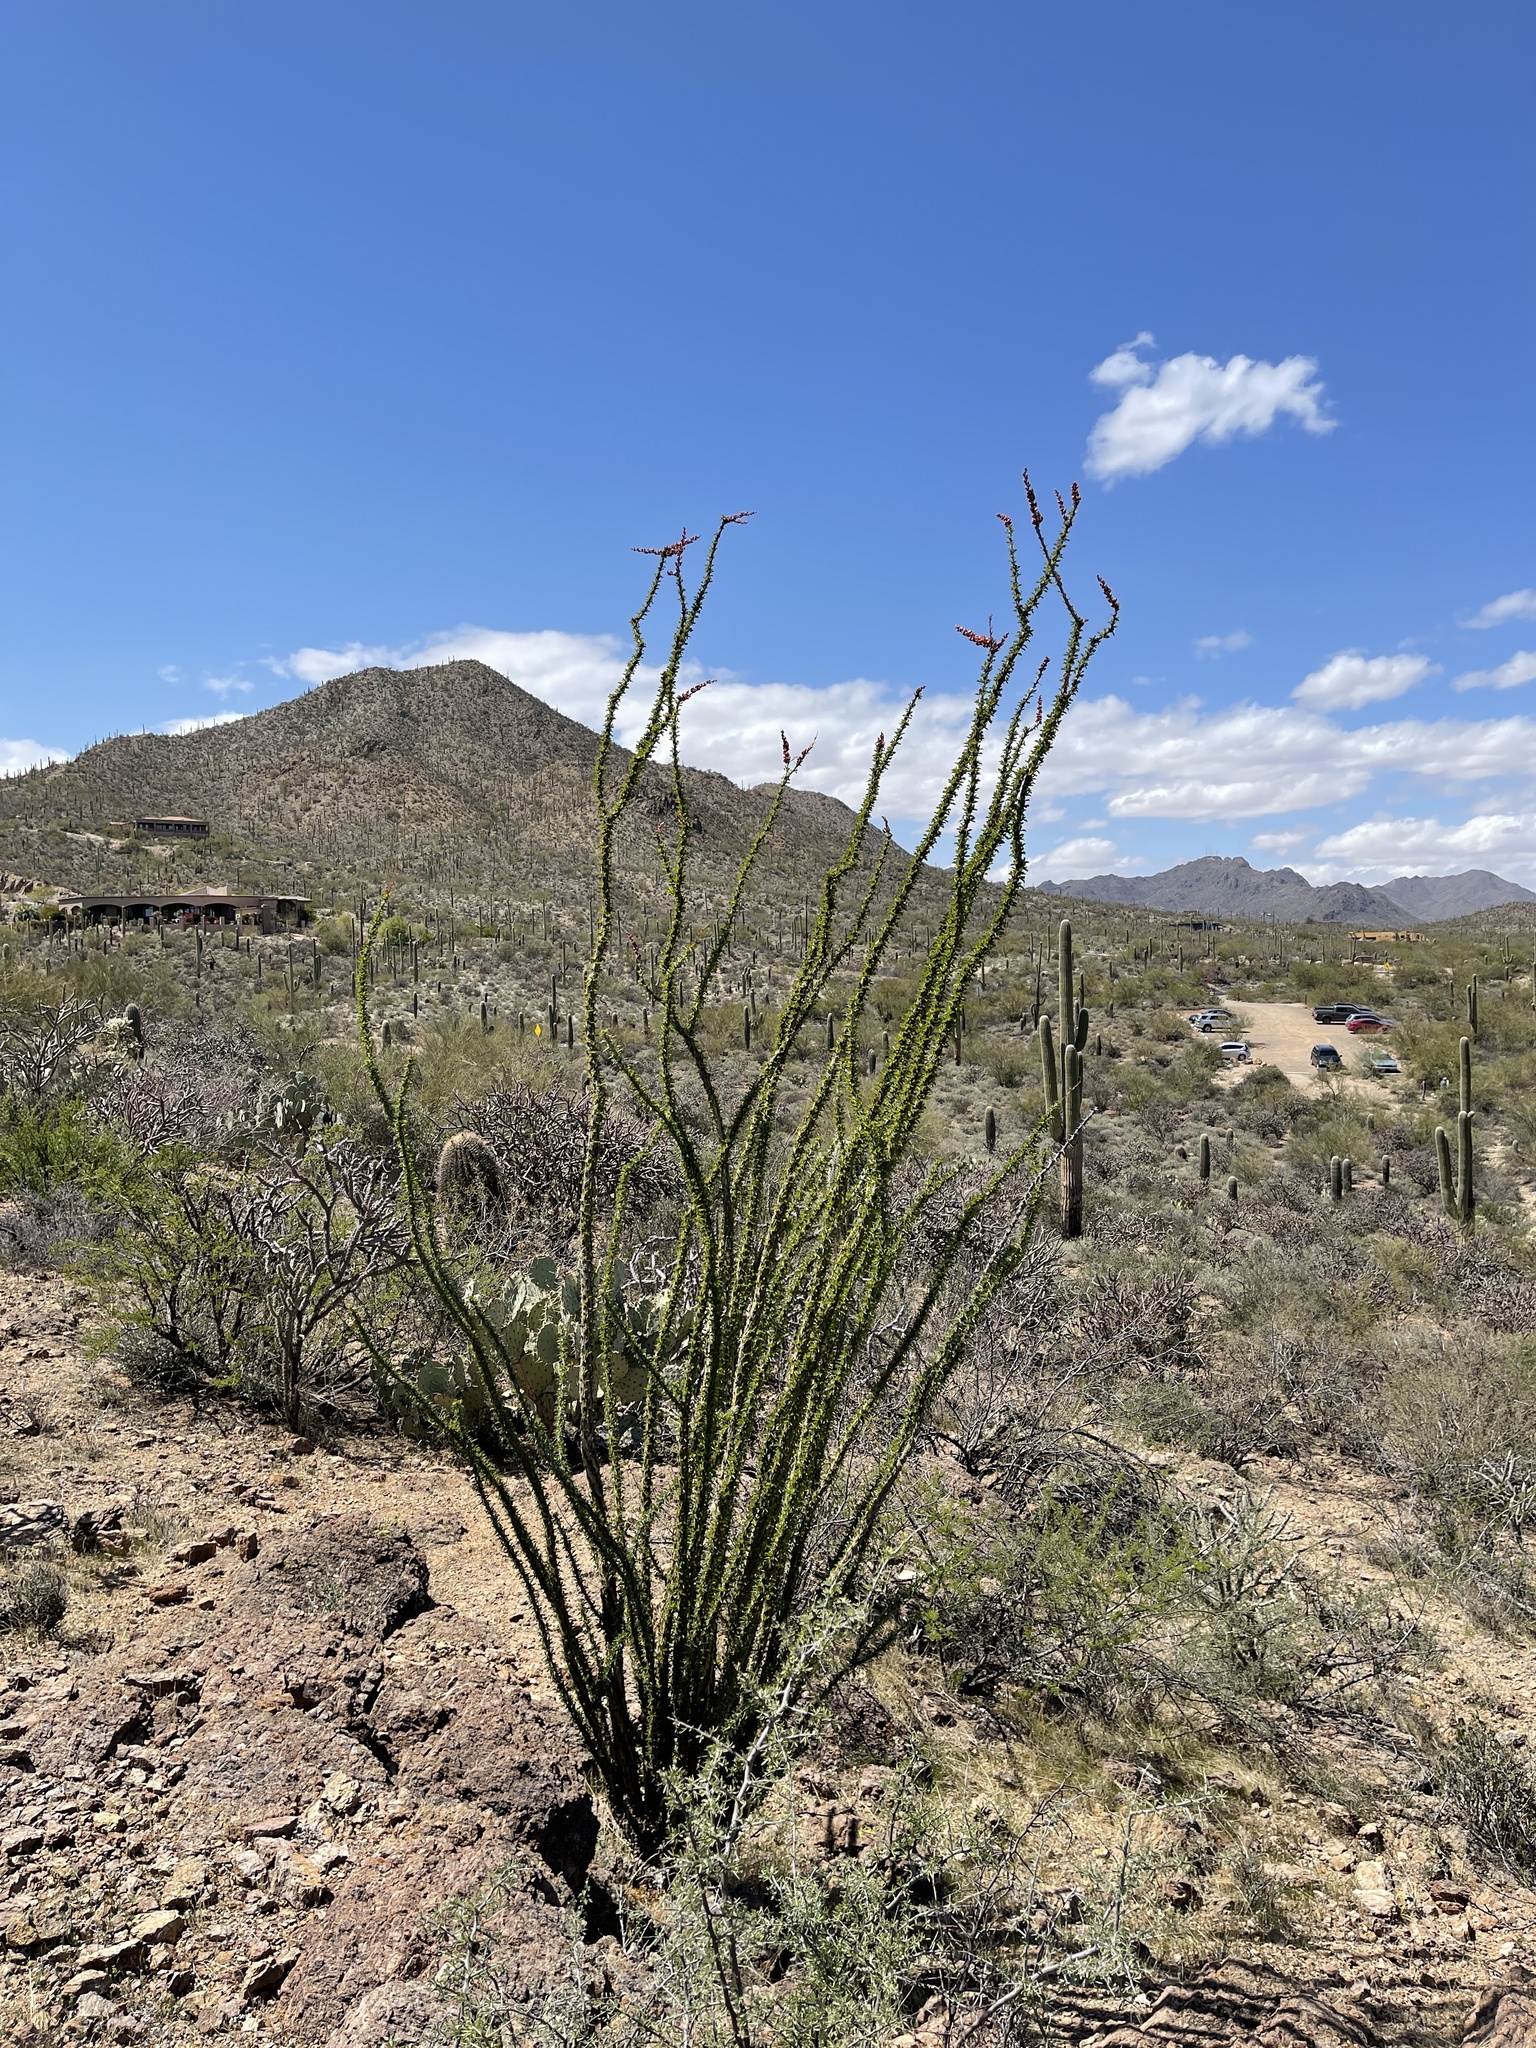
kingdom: Plantae
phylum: Tracheophyta
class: Magnoliopsida
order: Ericales
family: Fouquieriaceae
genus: Fouquieria
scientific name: Fouquieria splendens
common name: Vine-cactus
